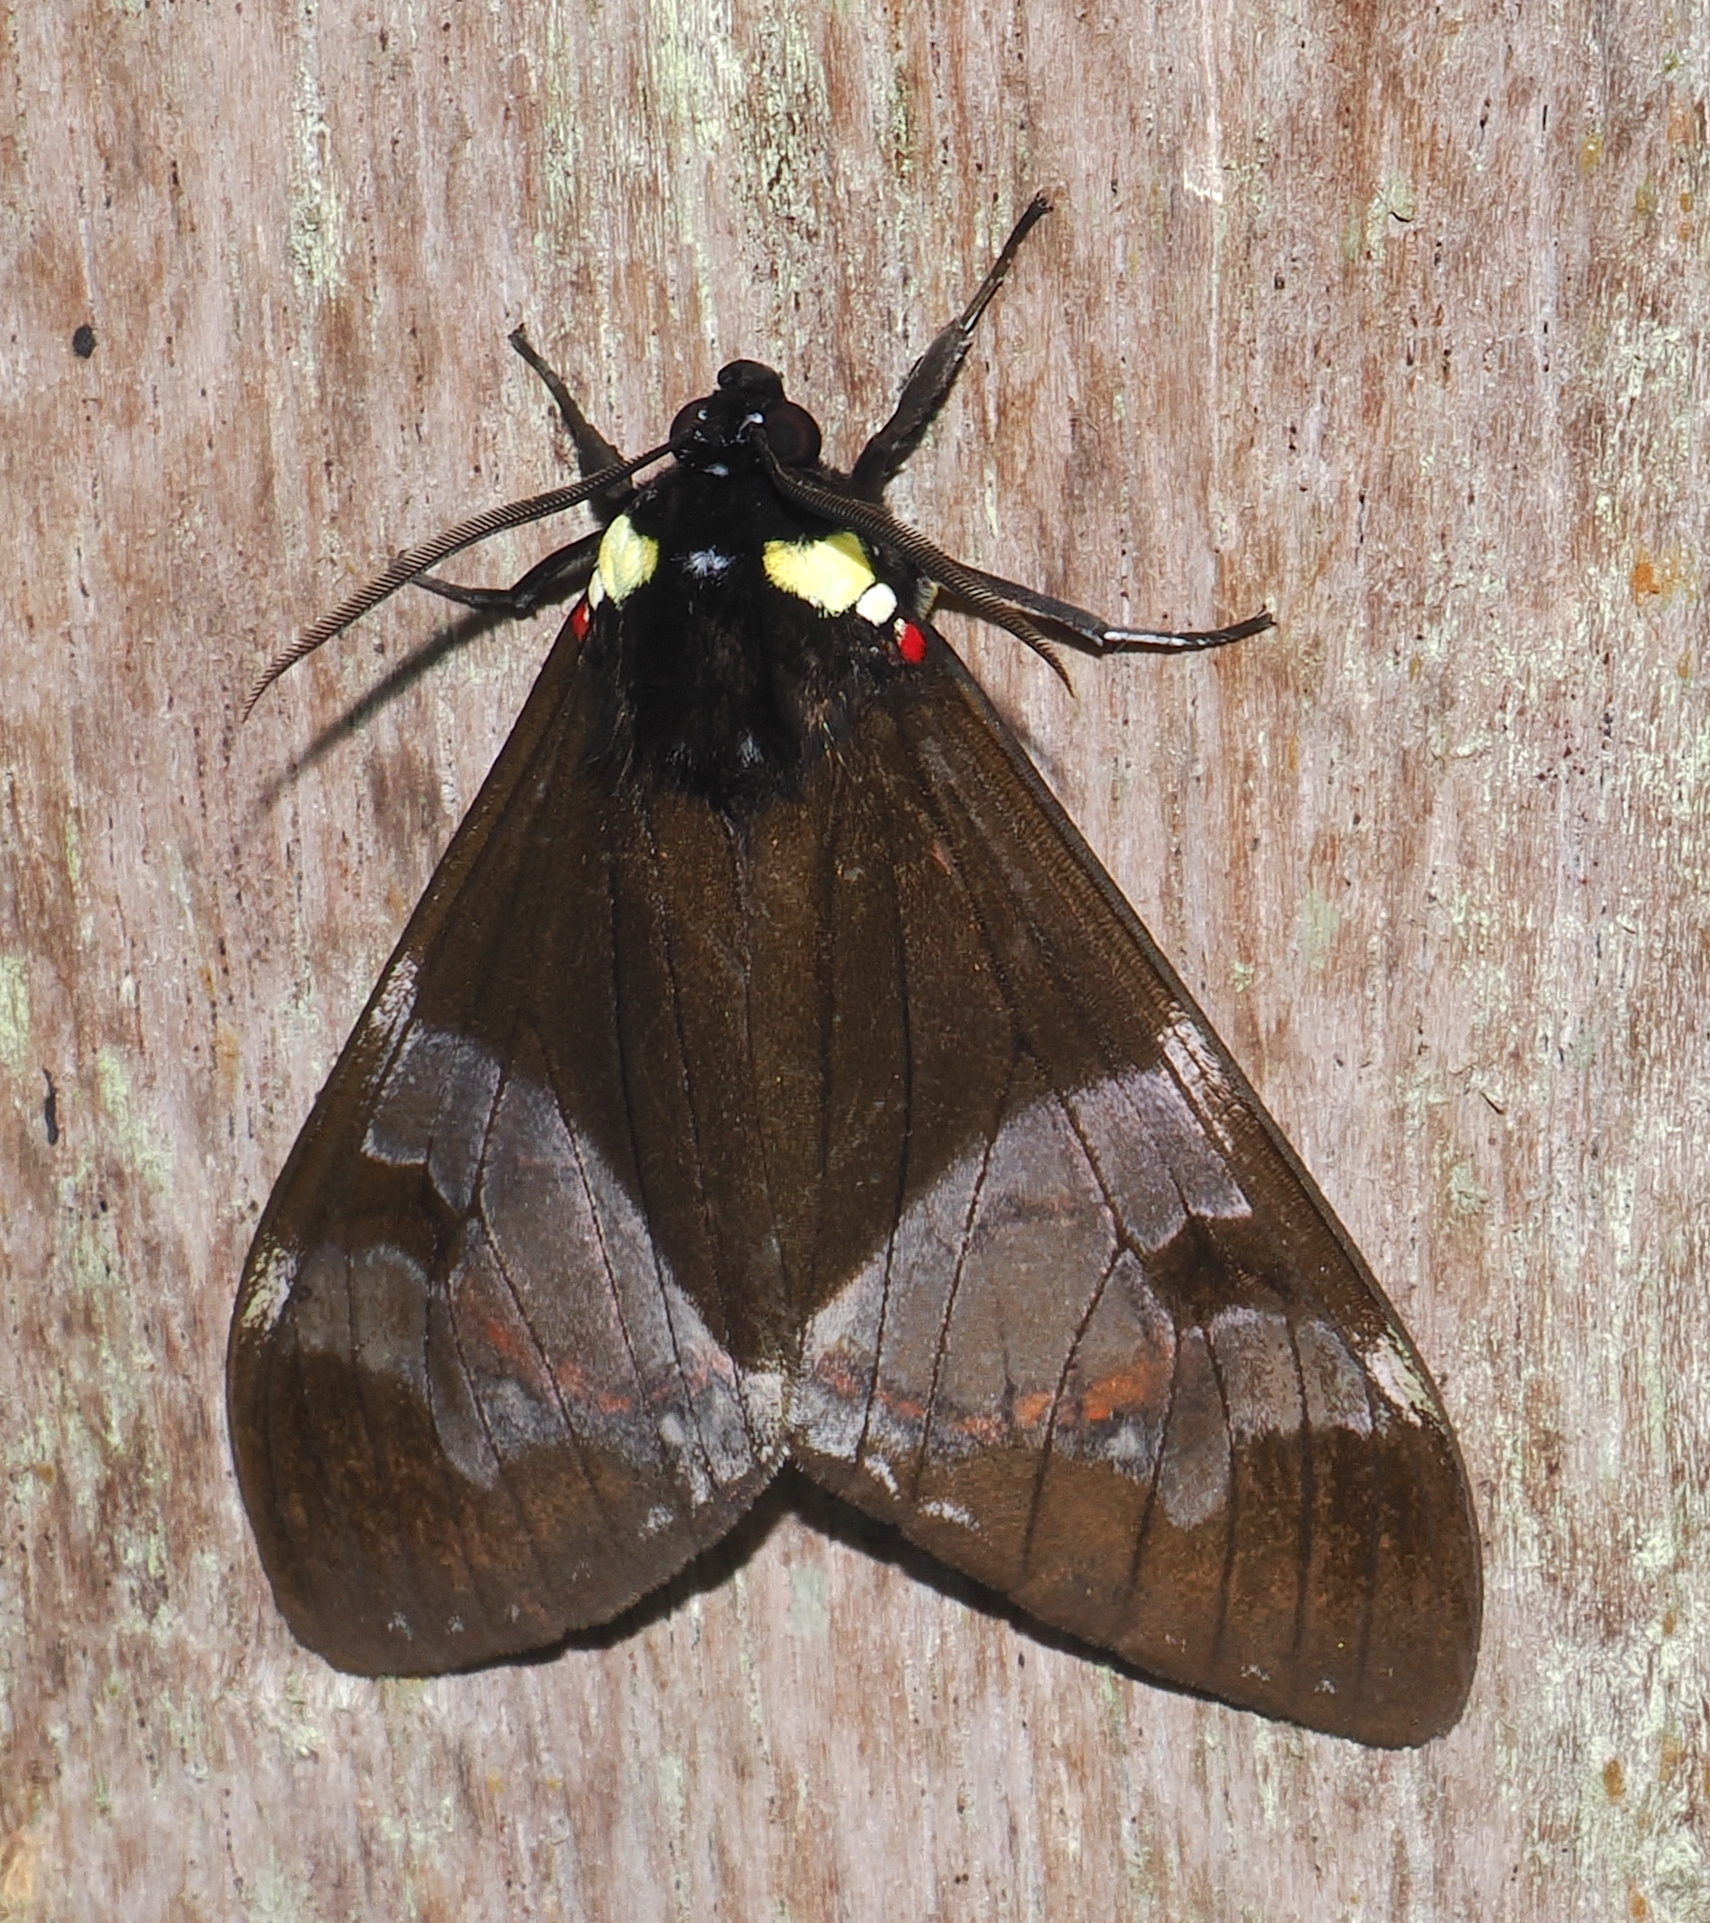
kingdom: Animalia
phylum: Arthropoda
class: Insecta
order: Lepidoptera
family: Erebidae
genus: Dysschema
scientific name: Dysschema marginalis
